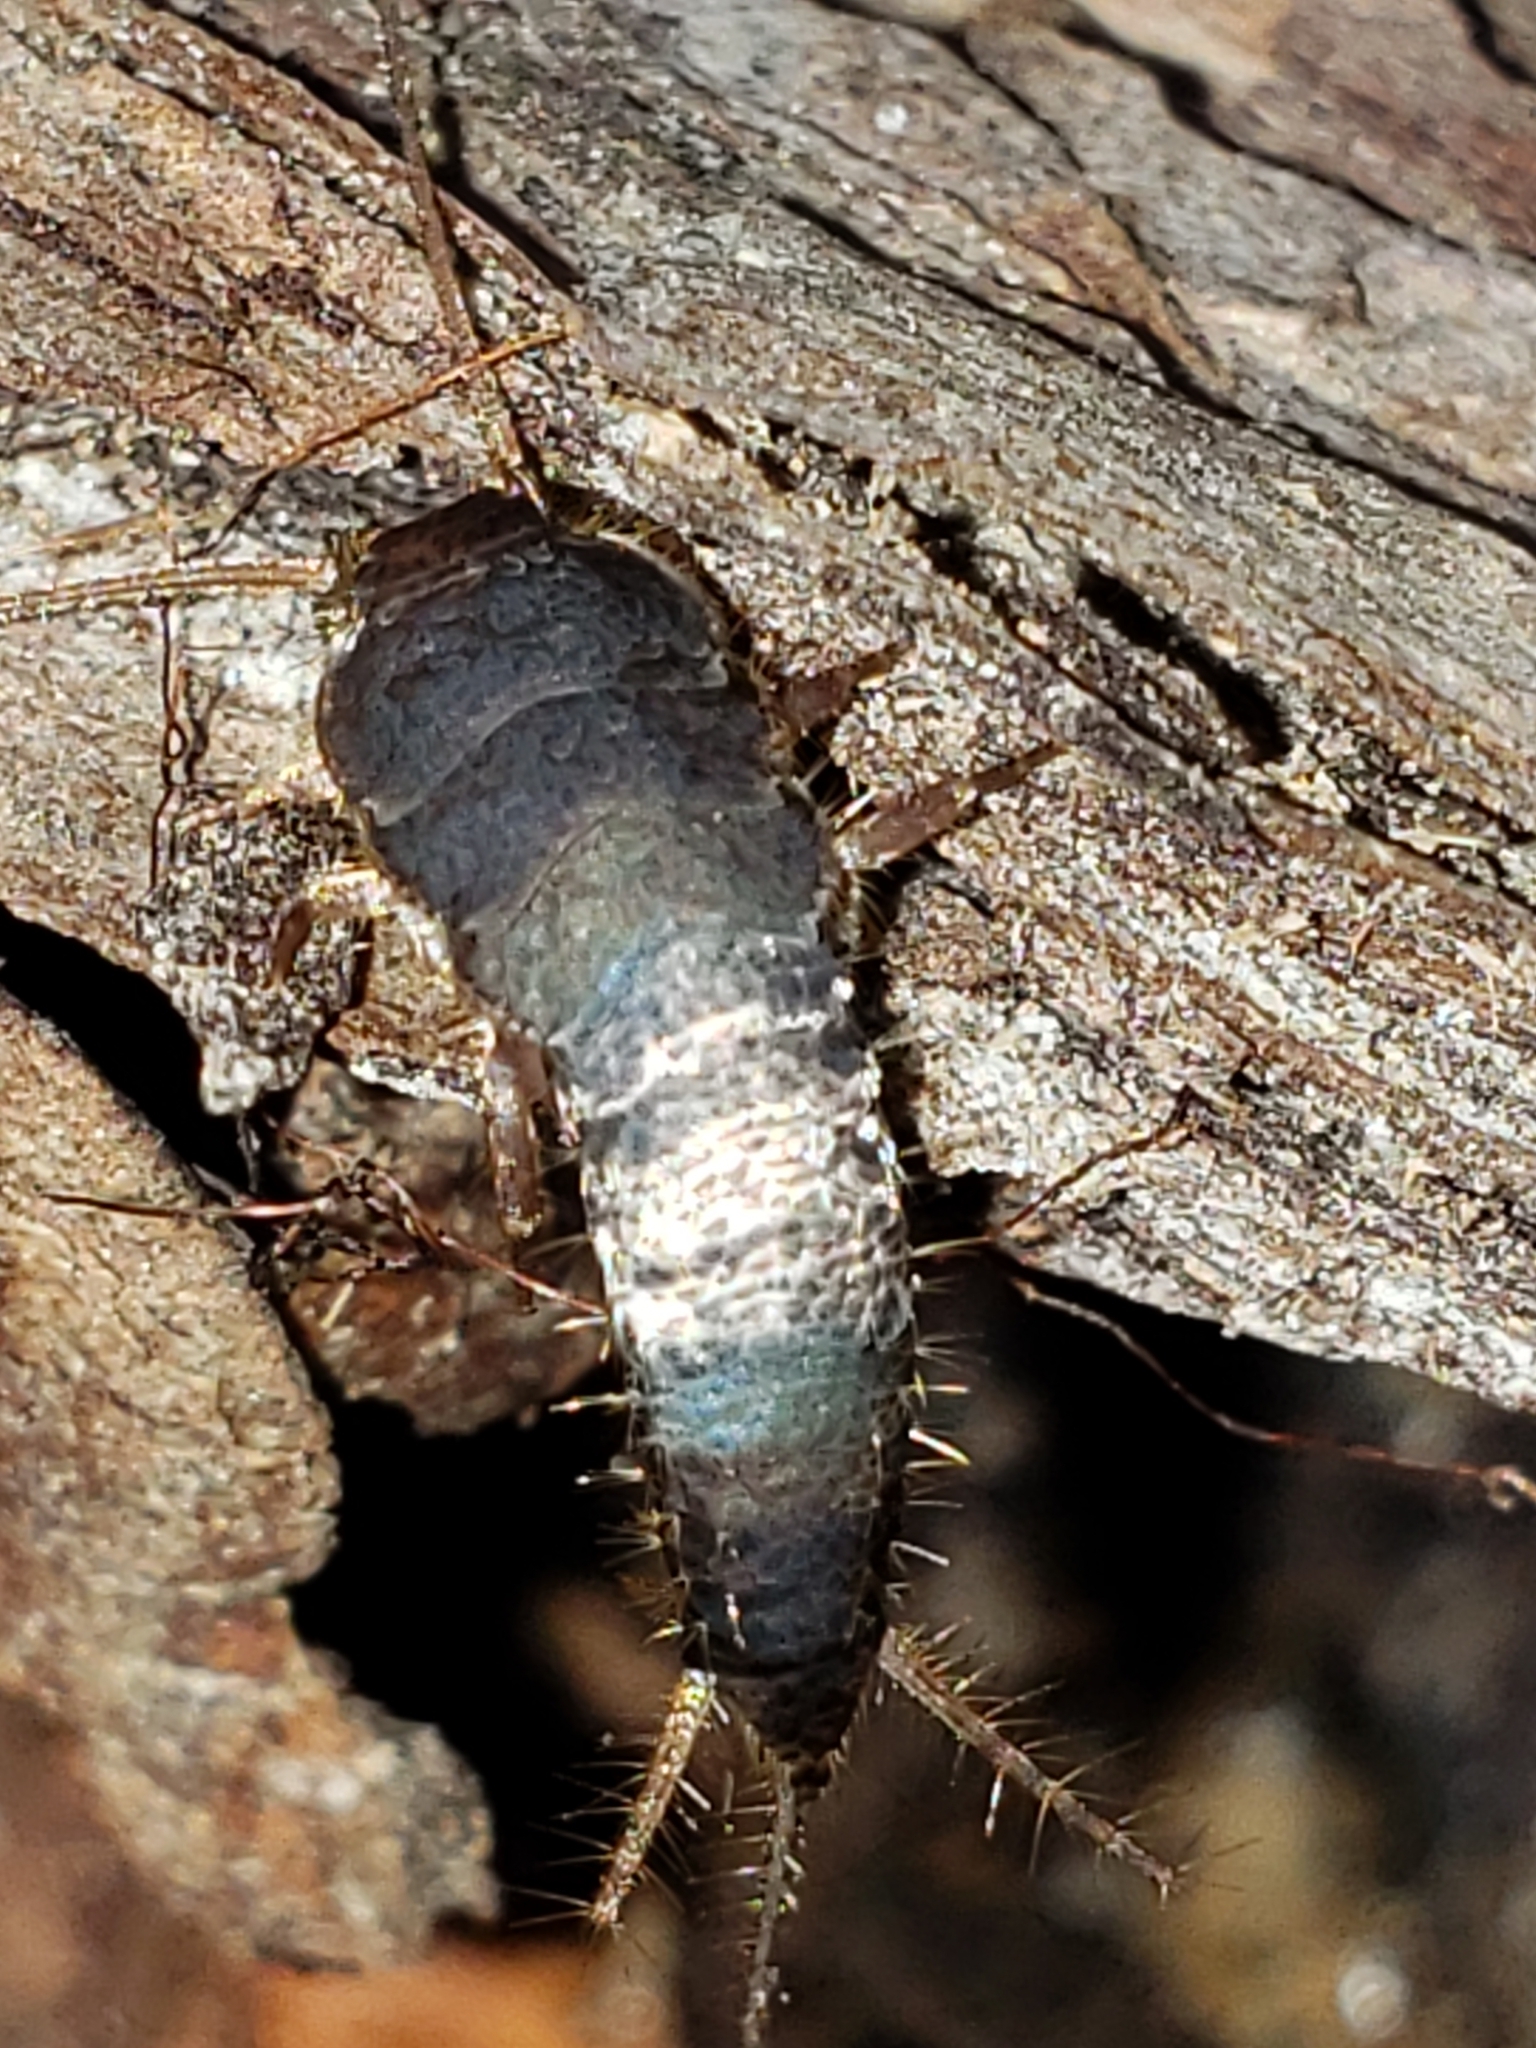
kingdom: Animalia
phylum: Arthropoda
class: Insecta
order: Zygentoma
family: Lepismatidae
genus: Allacrotelsa
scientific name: Allacrotelsa spinulata
